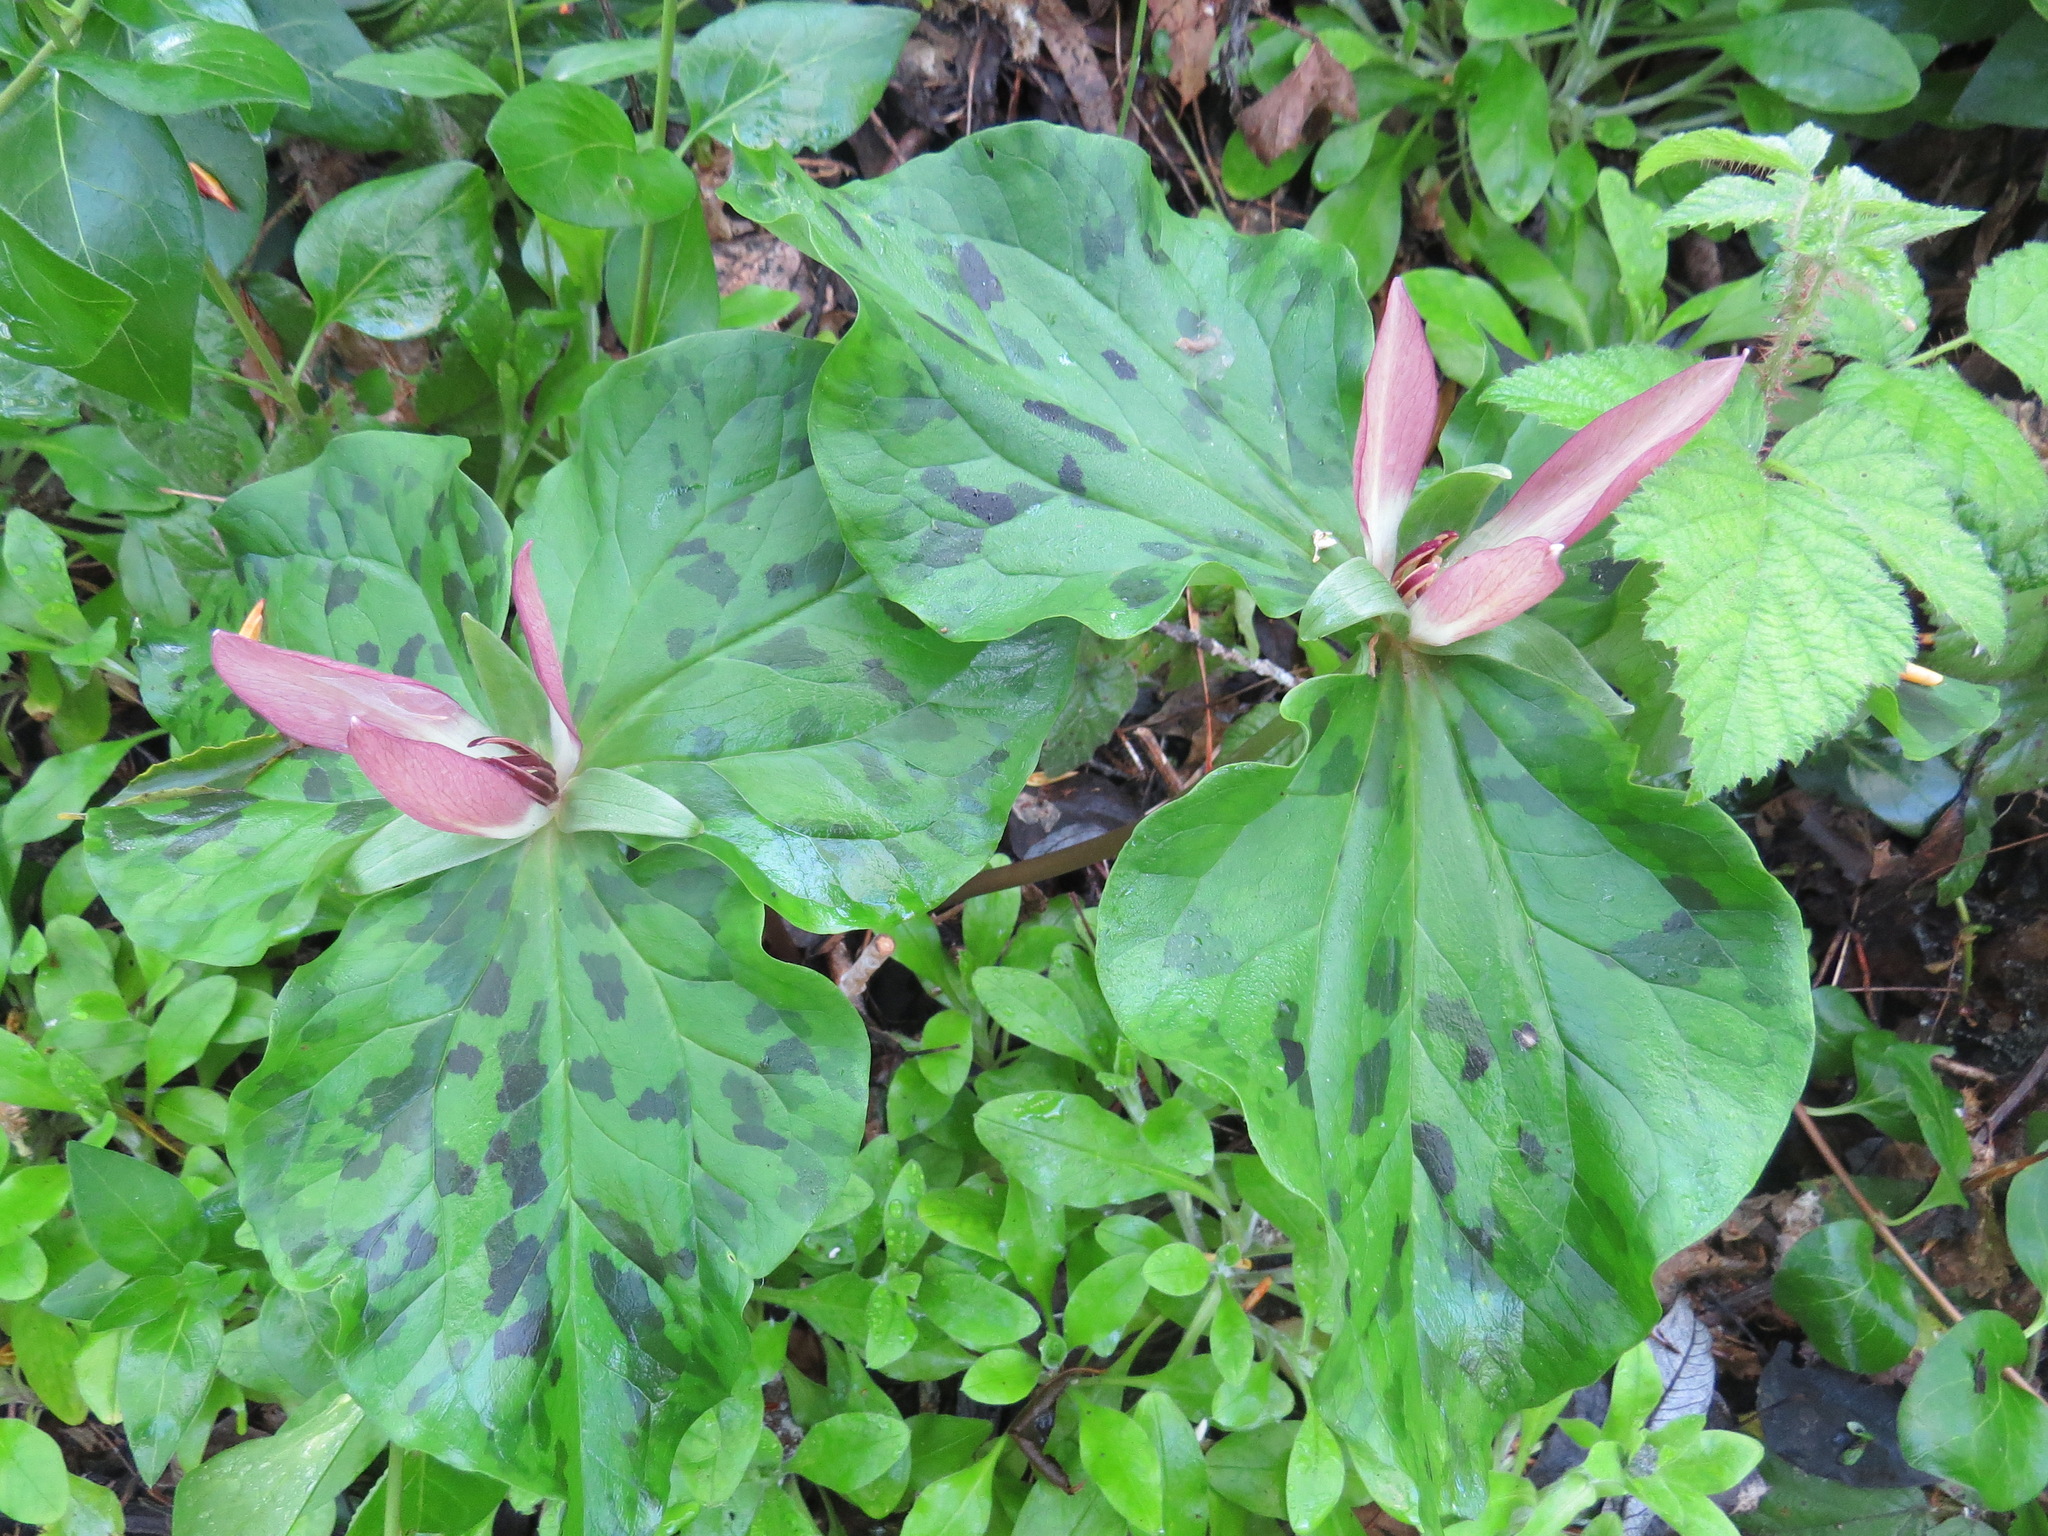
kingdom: Plantae
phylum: Tracheophyta
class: Liliopsida
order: Liliales
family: Melanthiaceae
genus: Trillium
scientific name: Trillium chloropetalum
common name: Giant trillium
